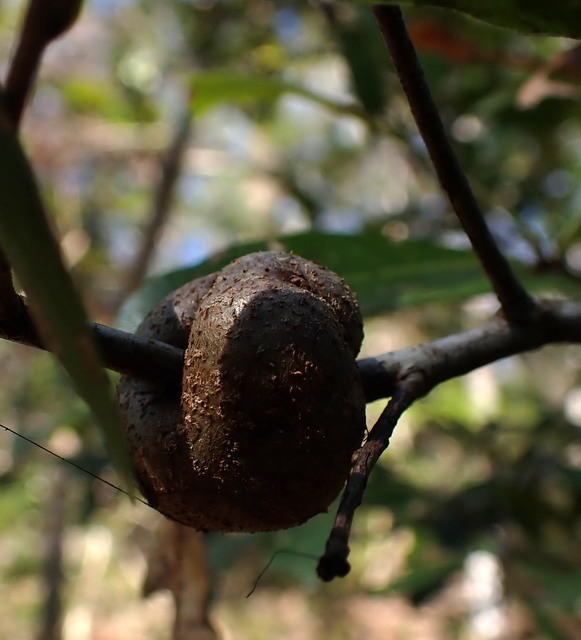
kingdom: Animalia
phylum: Arthropoda
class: Insecta
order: Hymenoptera
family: Cynipidae
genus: Callirhytis
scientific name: Callirhytis
